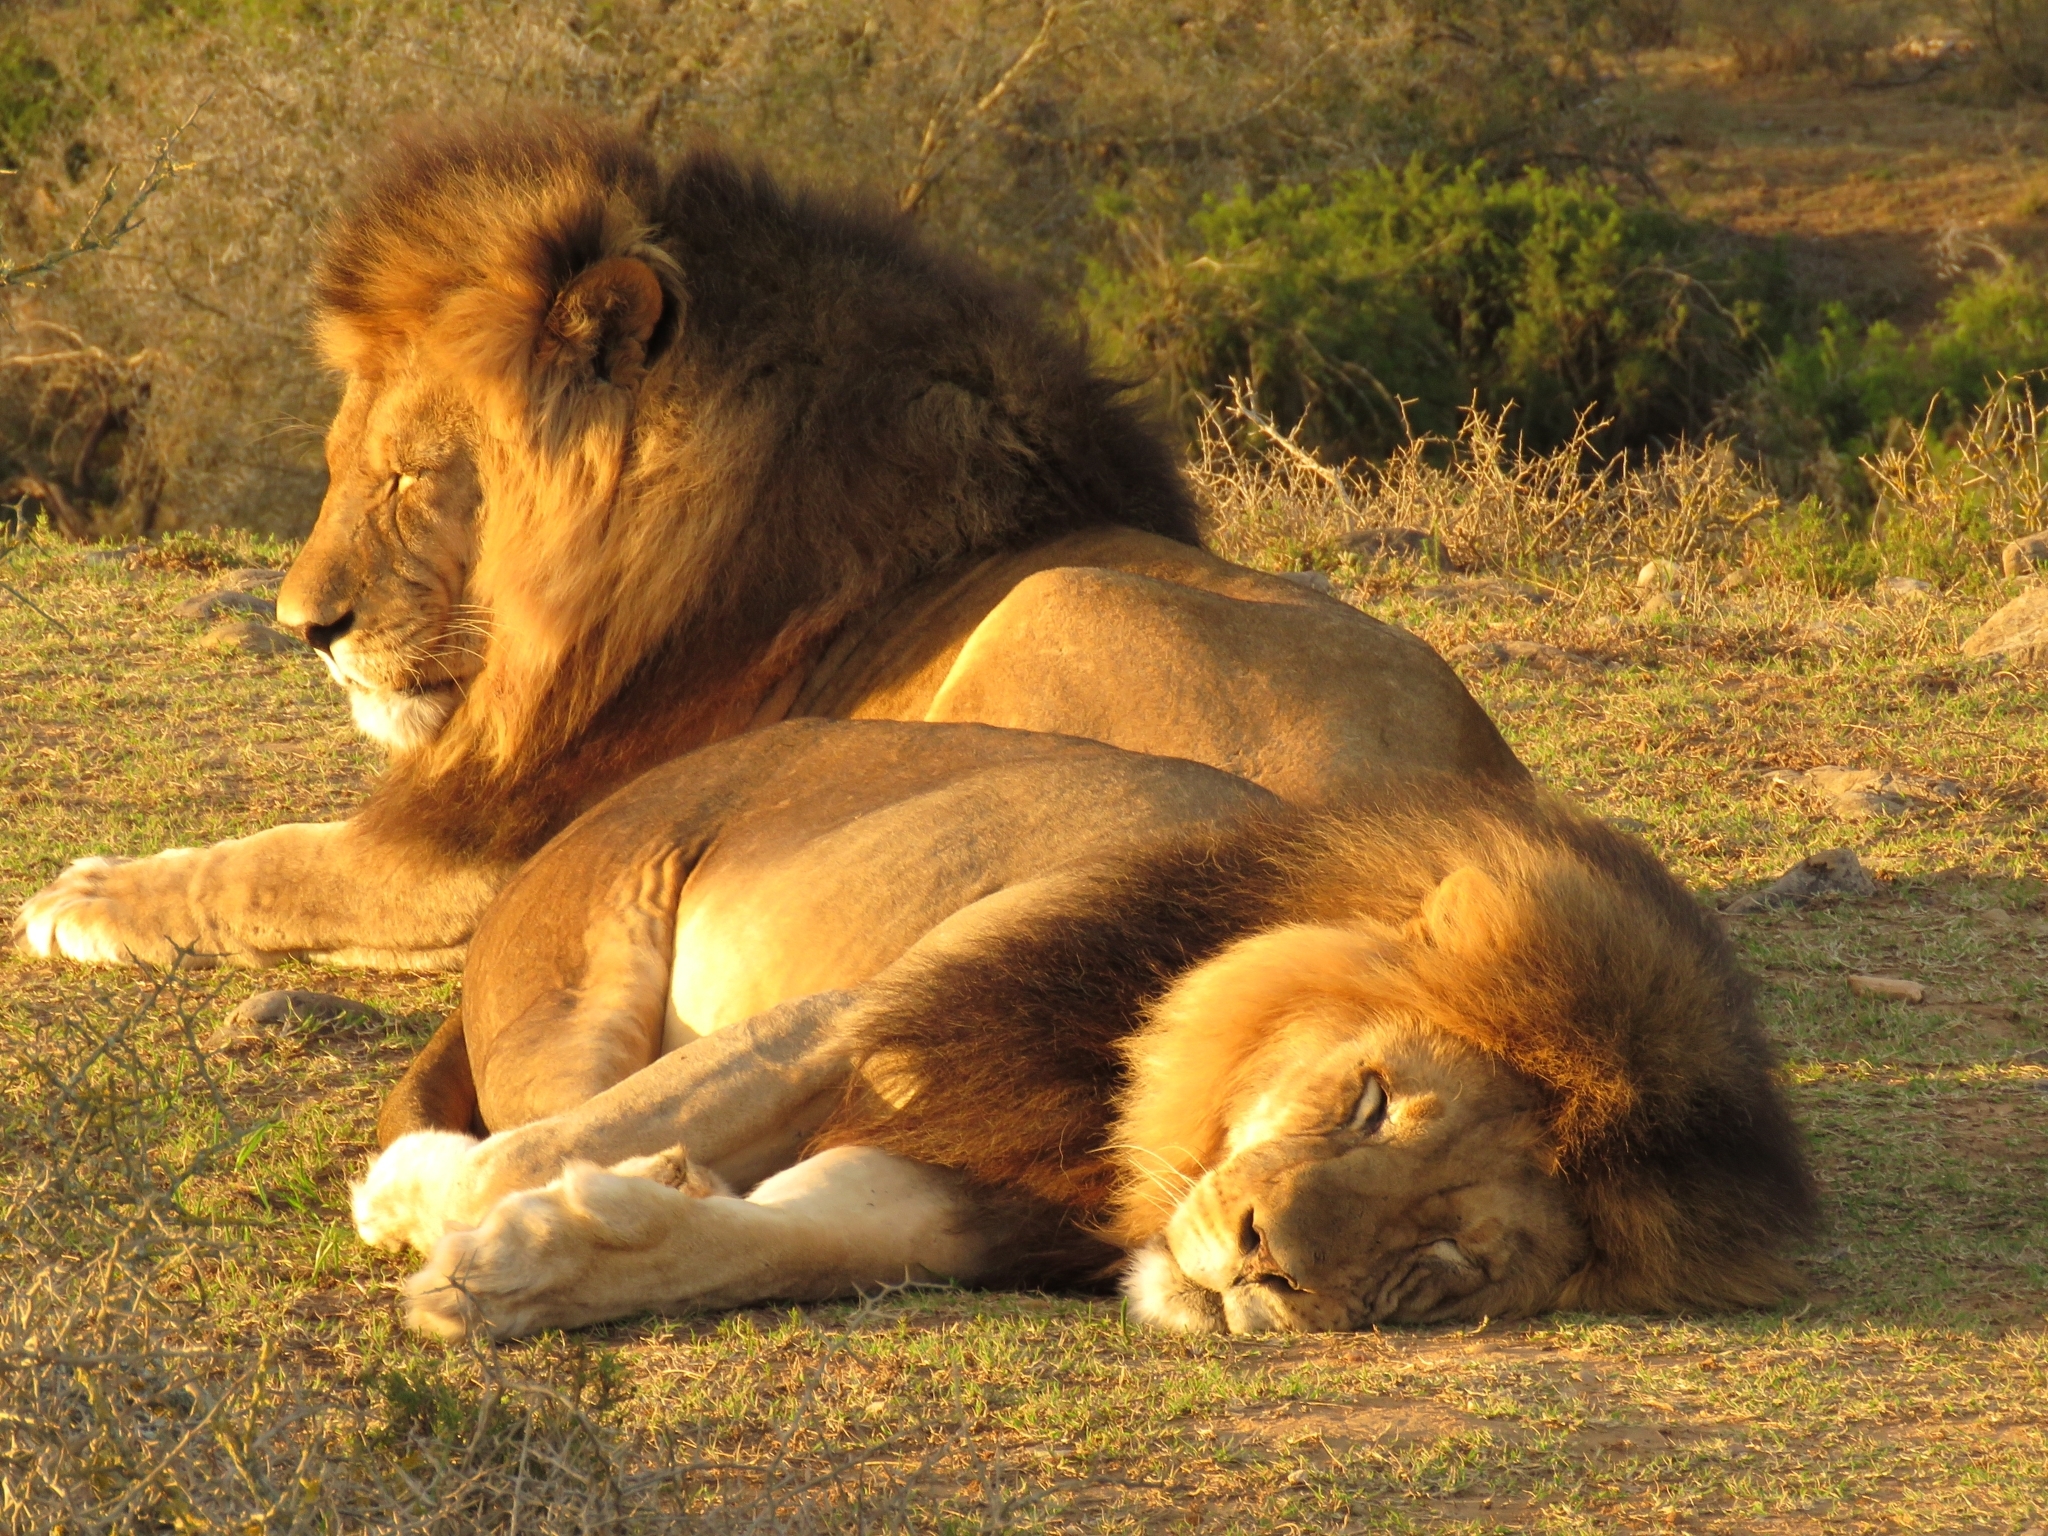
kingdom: Animalia
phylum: Chordata
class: Mammalia
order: Carnivora
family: Felidae
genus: Panthera
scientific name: Panthera leo
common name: Lion
